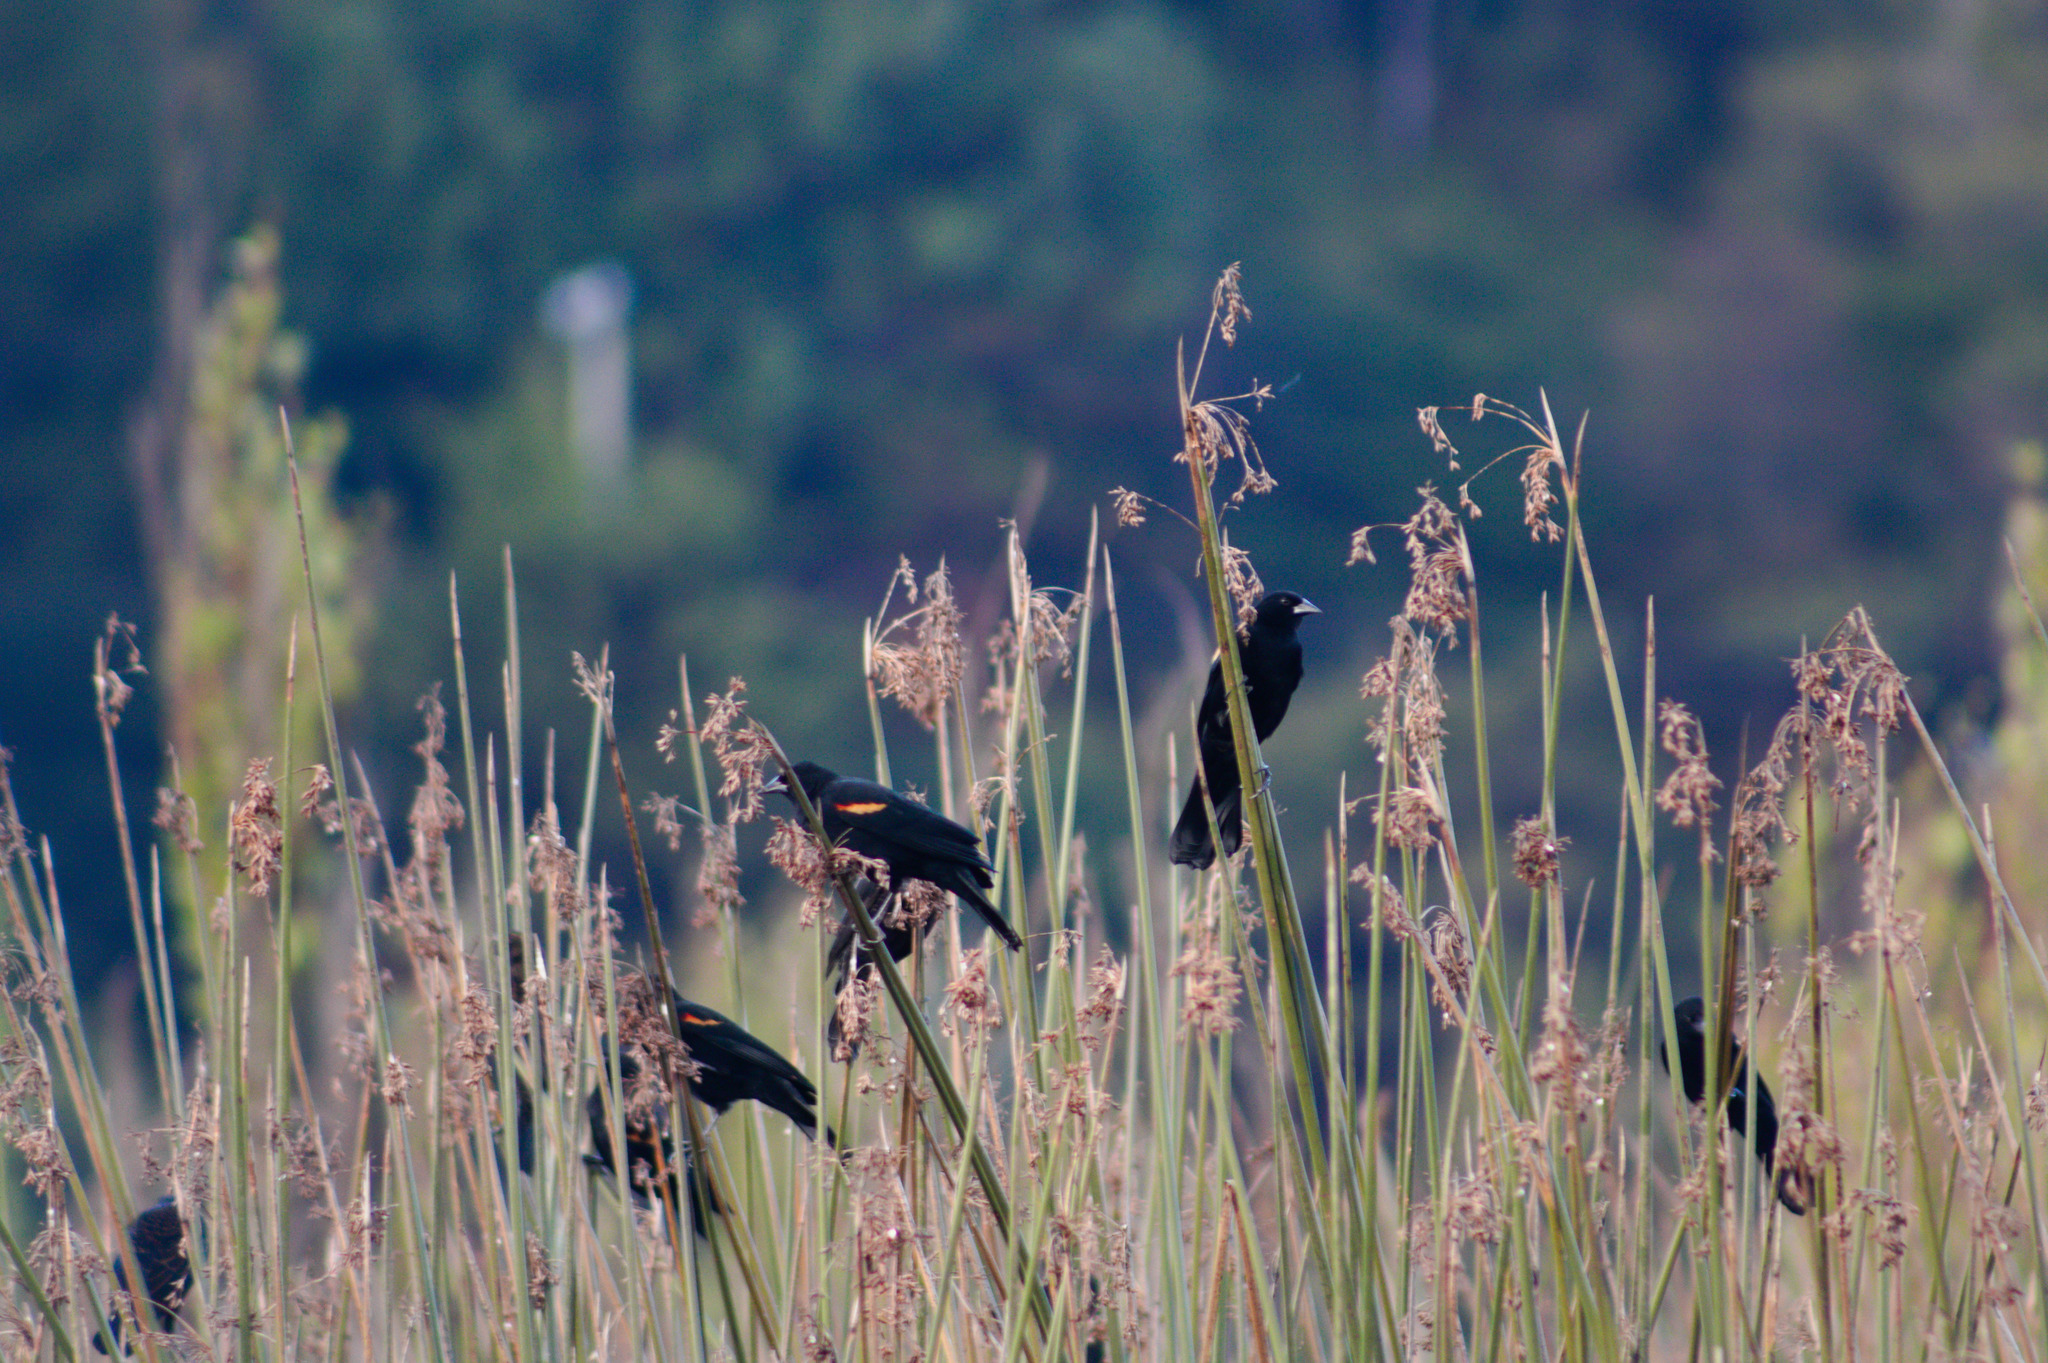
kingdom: Animalia
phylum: Chordata
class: Aves
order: Passeriformes
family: Icteridae
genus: Agelaius
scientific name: Agelaius phoeniceus
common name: Red-winged blackbird
